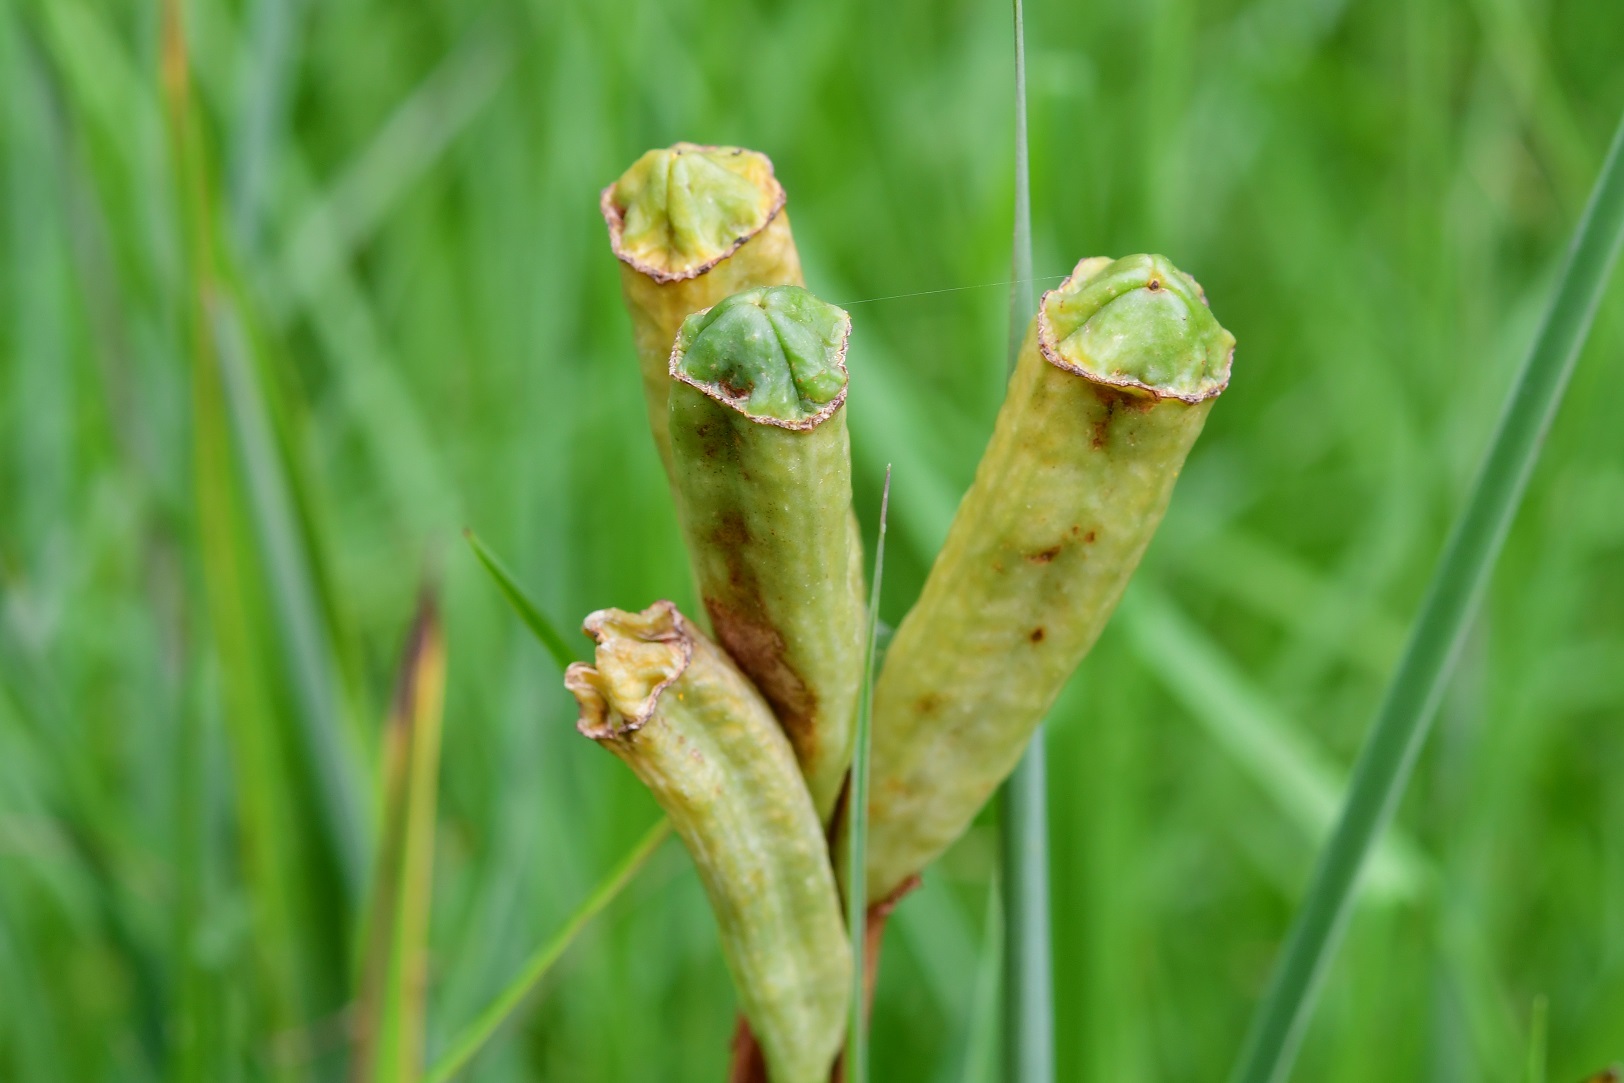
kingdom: Plantae
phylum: Tracheophyta
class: Liliopsida
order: Asparagales
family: Iridaceae
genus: Tigridia
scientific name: Tigridia pavonia
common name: Peacock-flower
